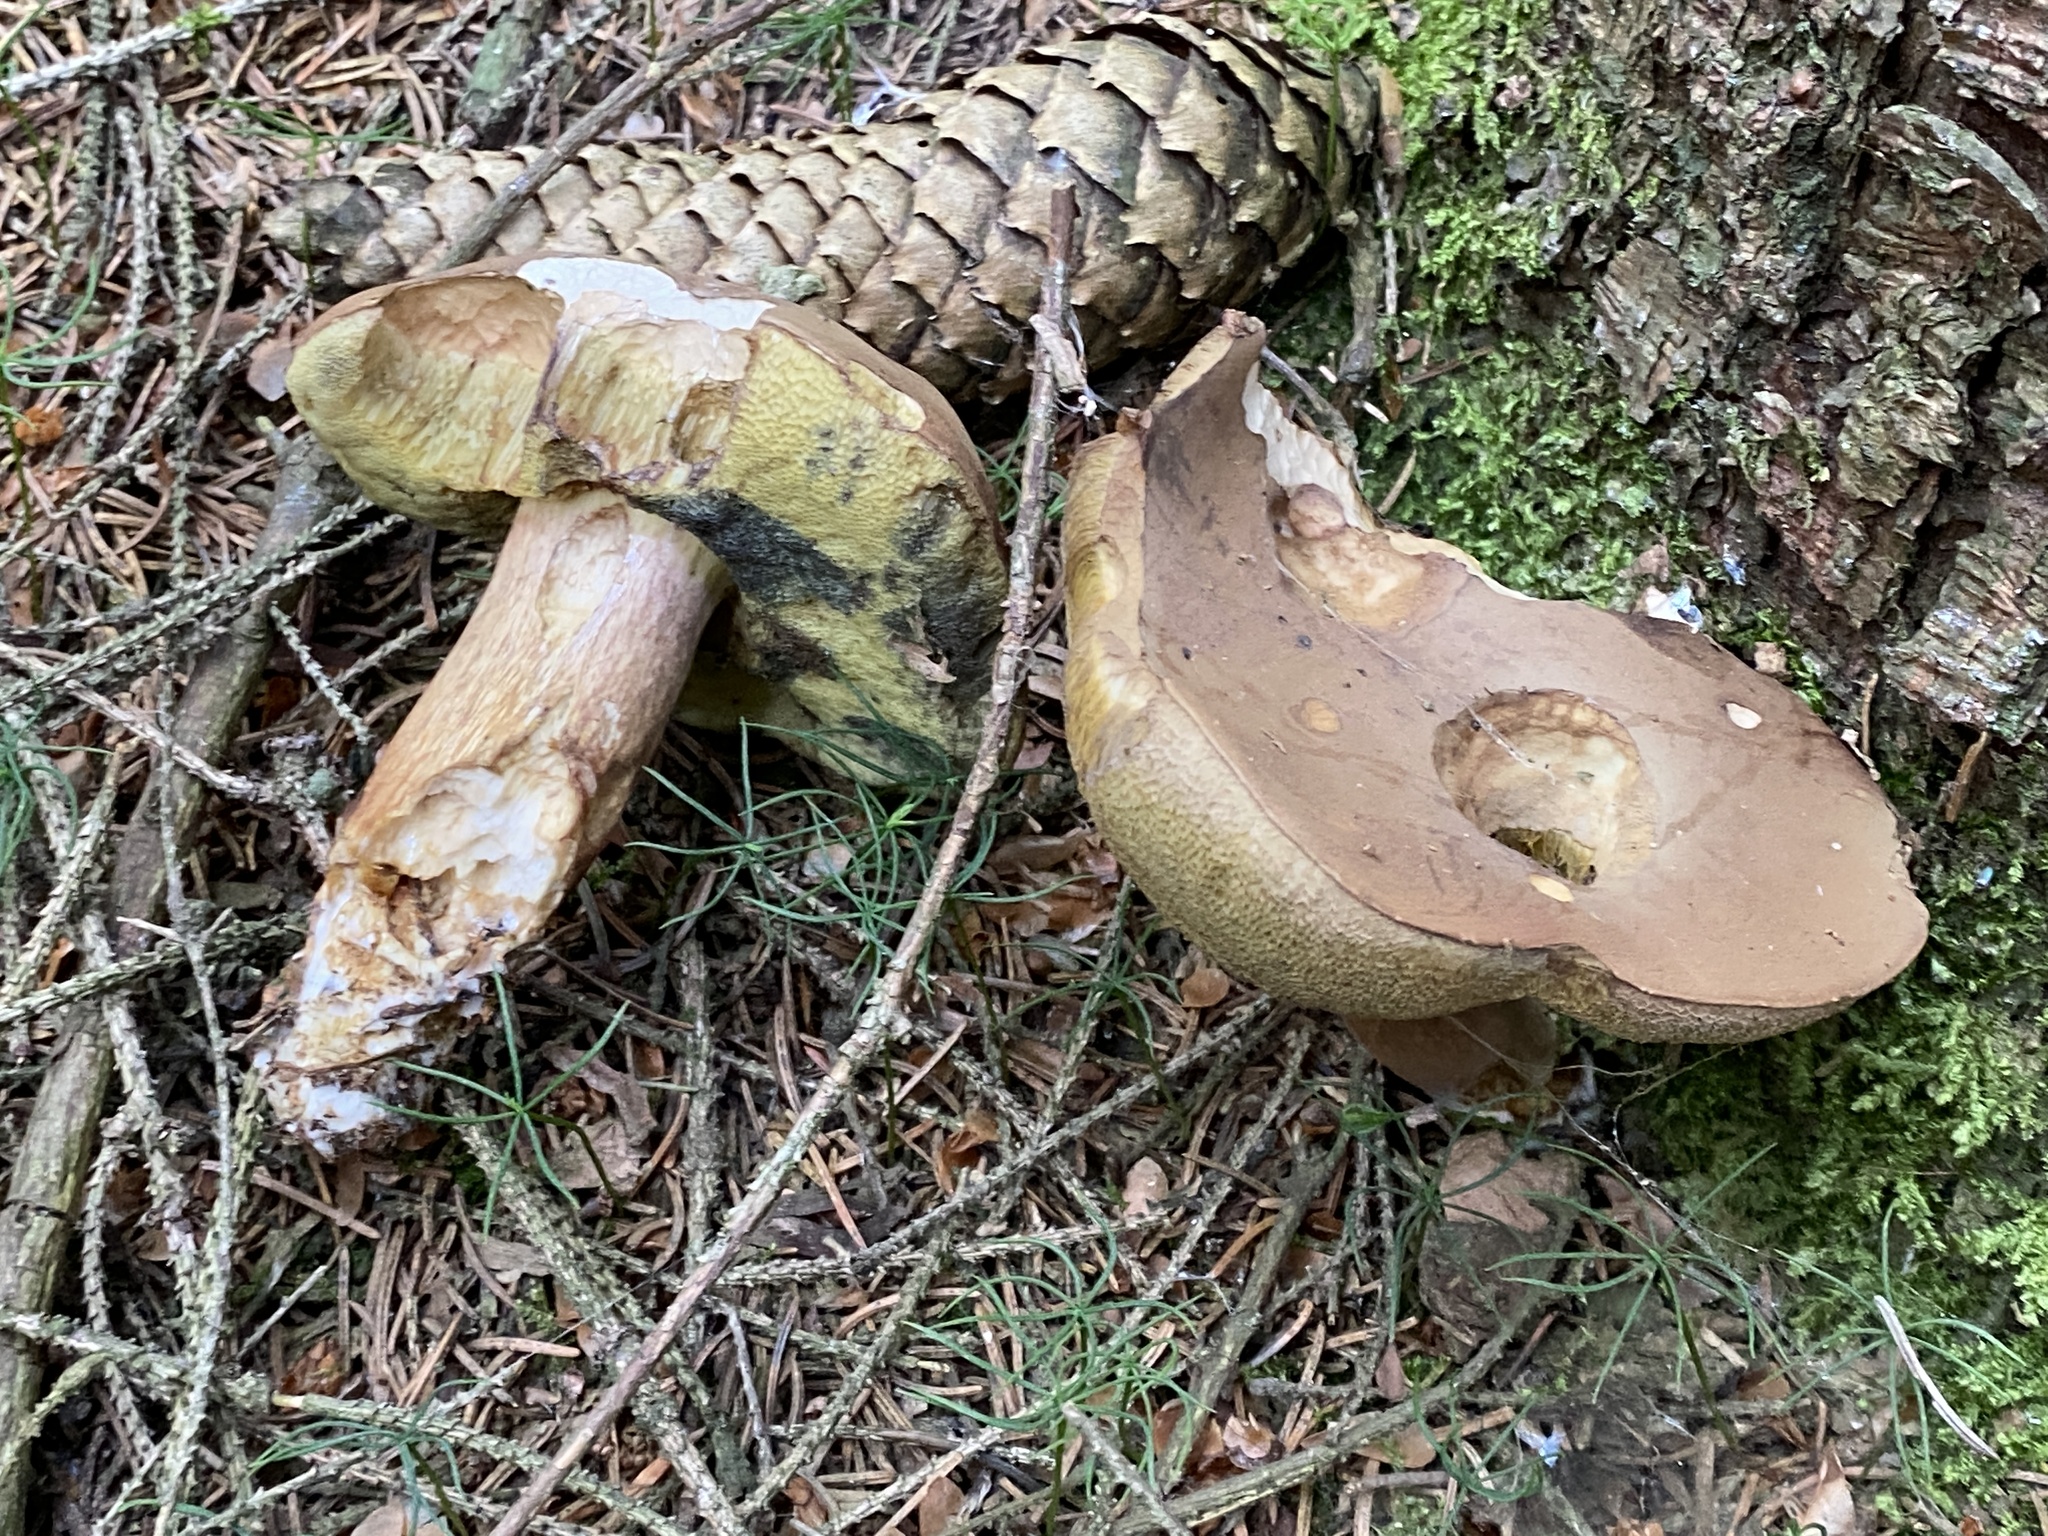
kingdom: Fungi
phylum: Basidiomycota
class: Agaricomycetes
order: Boletales
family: Boletaceae
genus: Imleria
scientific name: Imleria badia
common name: Bay bolete
